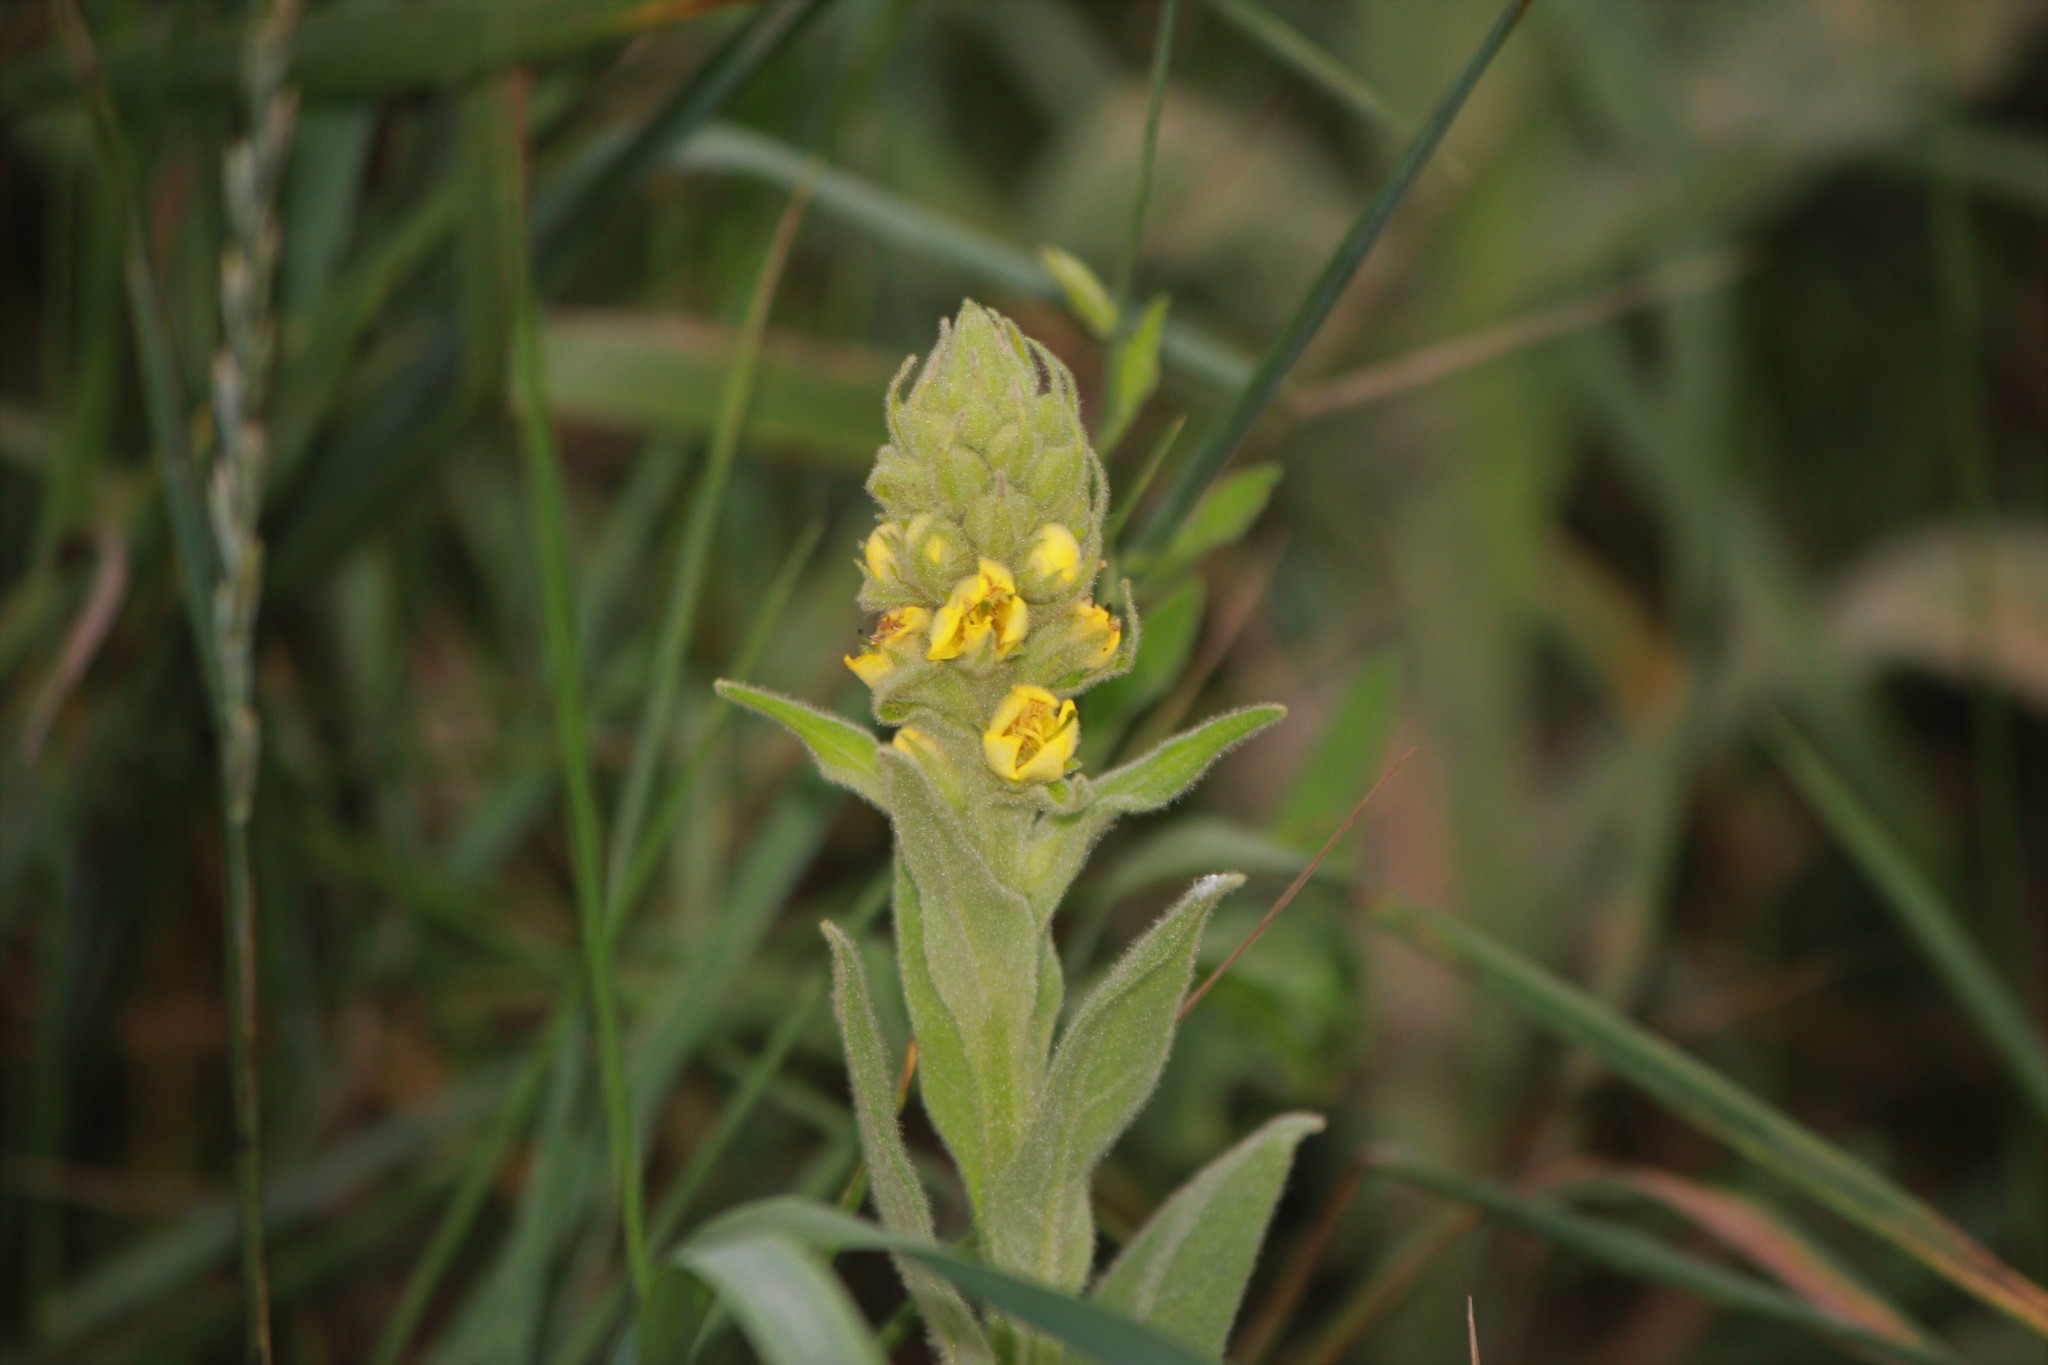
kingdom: Plantae
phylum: Tracheophyta
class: Magnoliopsida
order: Lamiales
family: Scrophulariaceae
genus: Verbascum
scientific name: Verbascum thapsus
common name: Common mullein
